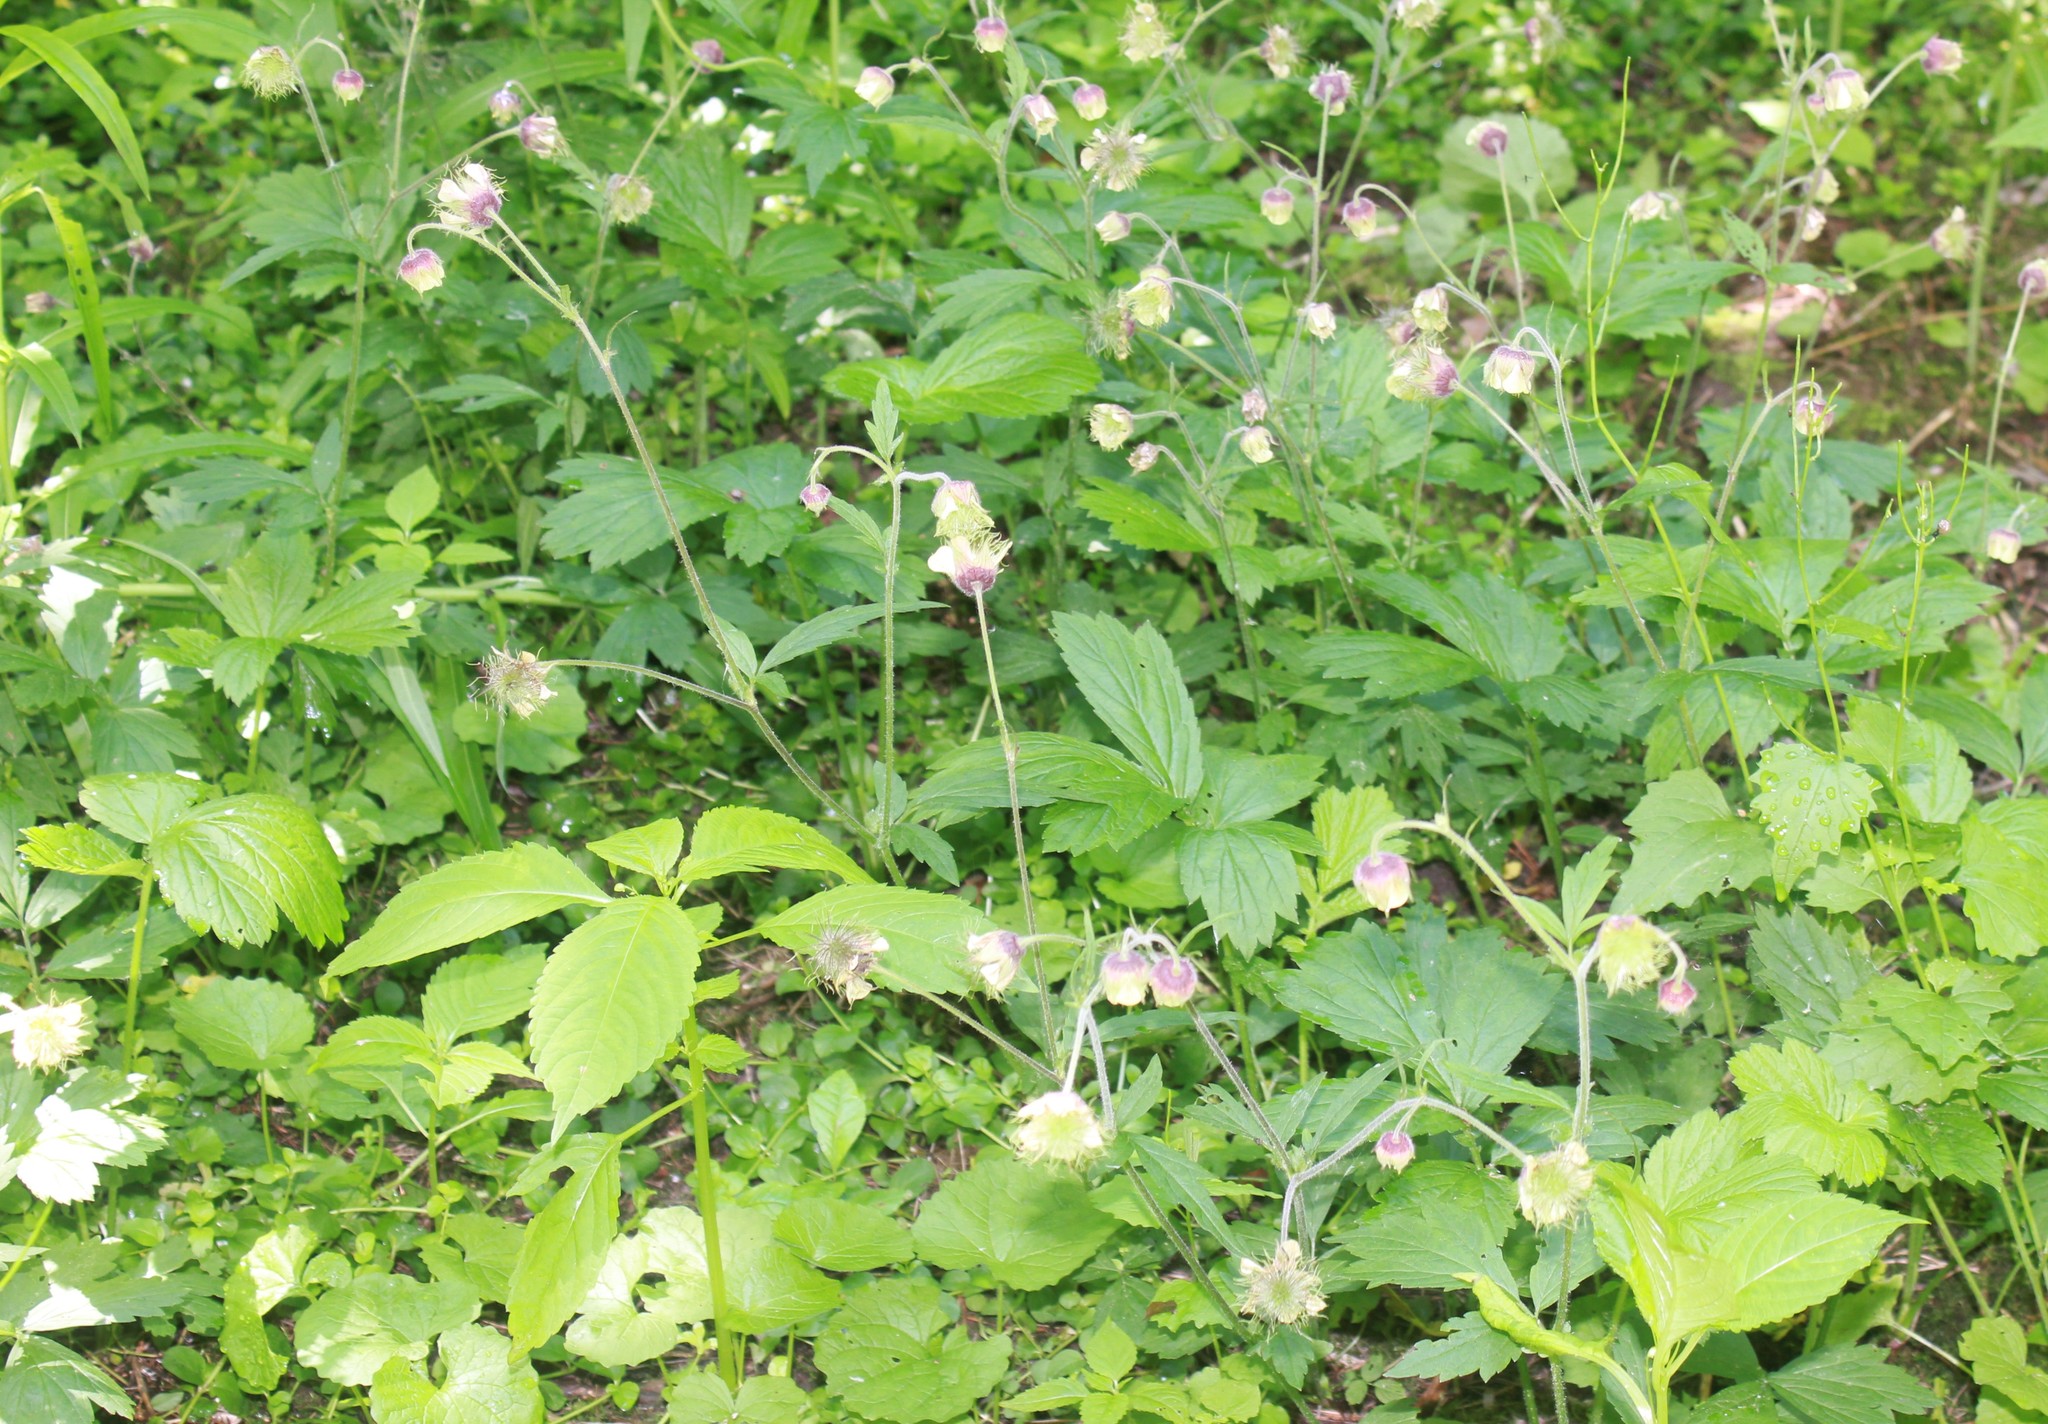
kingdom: Plantae
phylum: Tracheophyta
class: Magnoliopsida
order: Rosales
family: Rosaceae
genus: Geum
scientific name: Geum rivale
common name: Water avens
